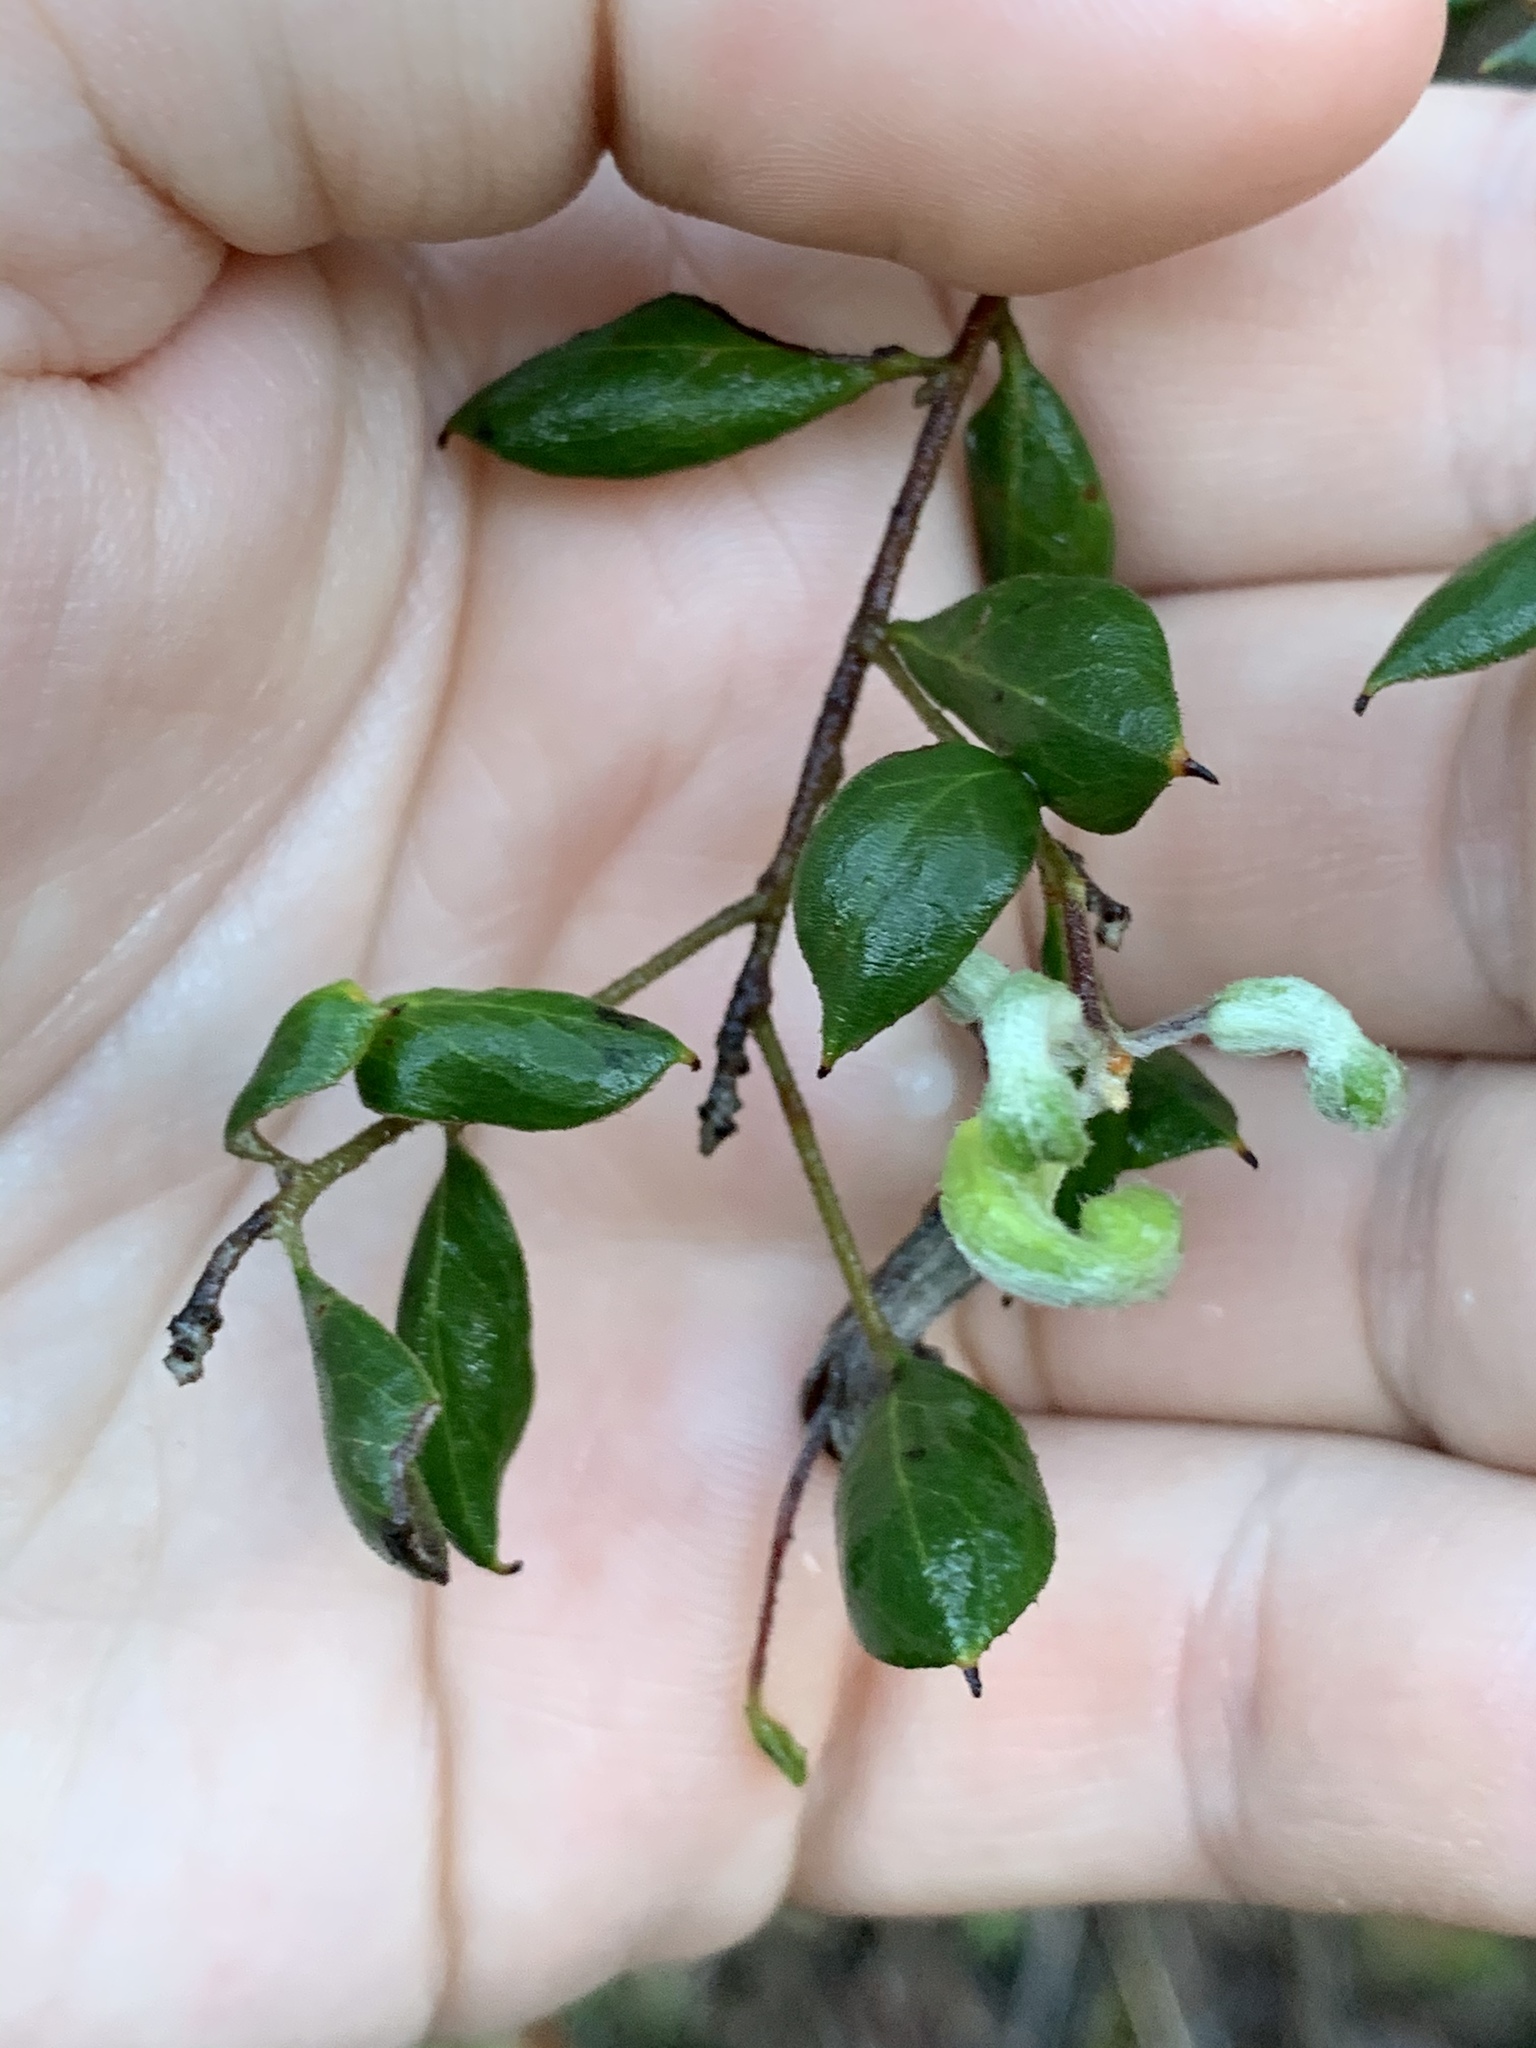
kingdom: Plantae
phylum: Tracheophyta
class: Magnoliopsida
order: Proteales
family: Proteaceae
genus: Grevillea
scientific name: Grevillea mucronulata
